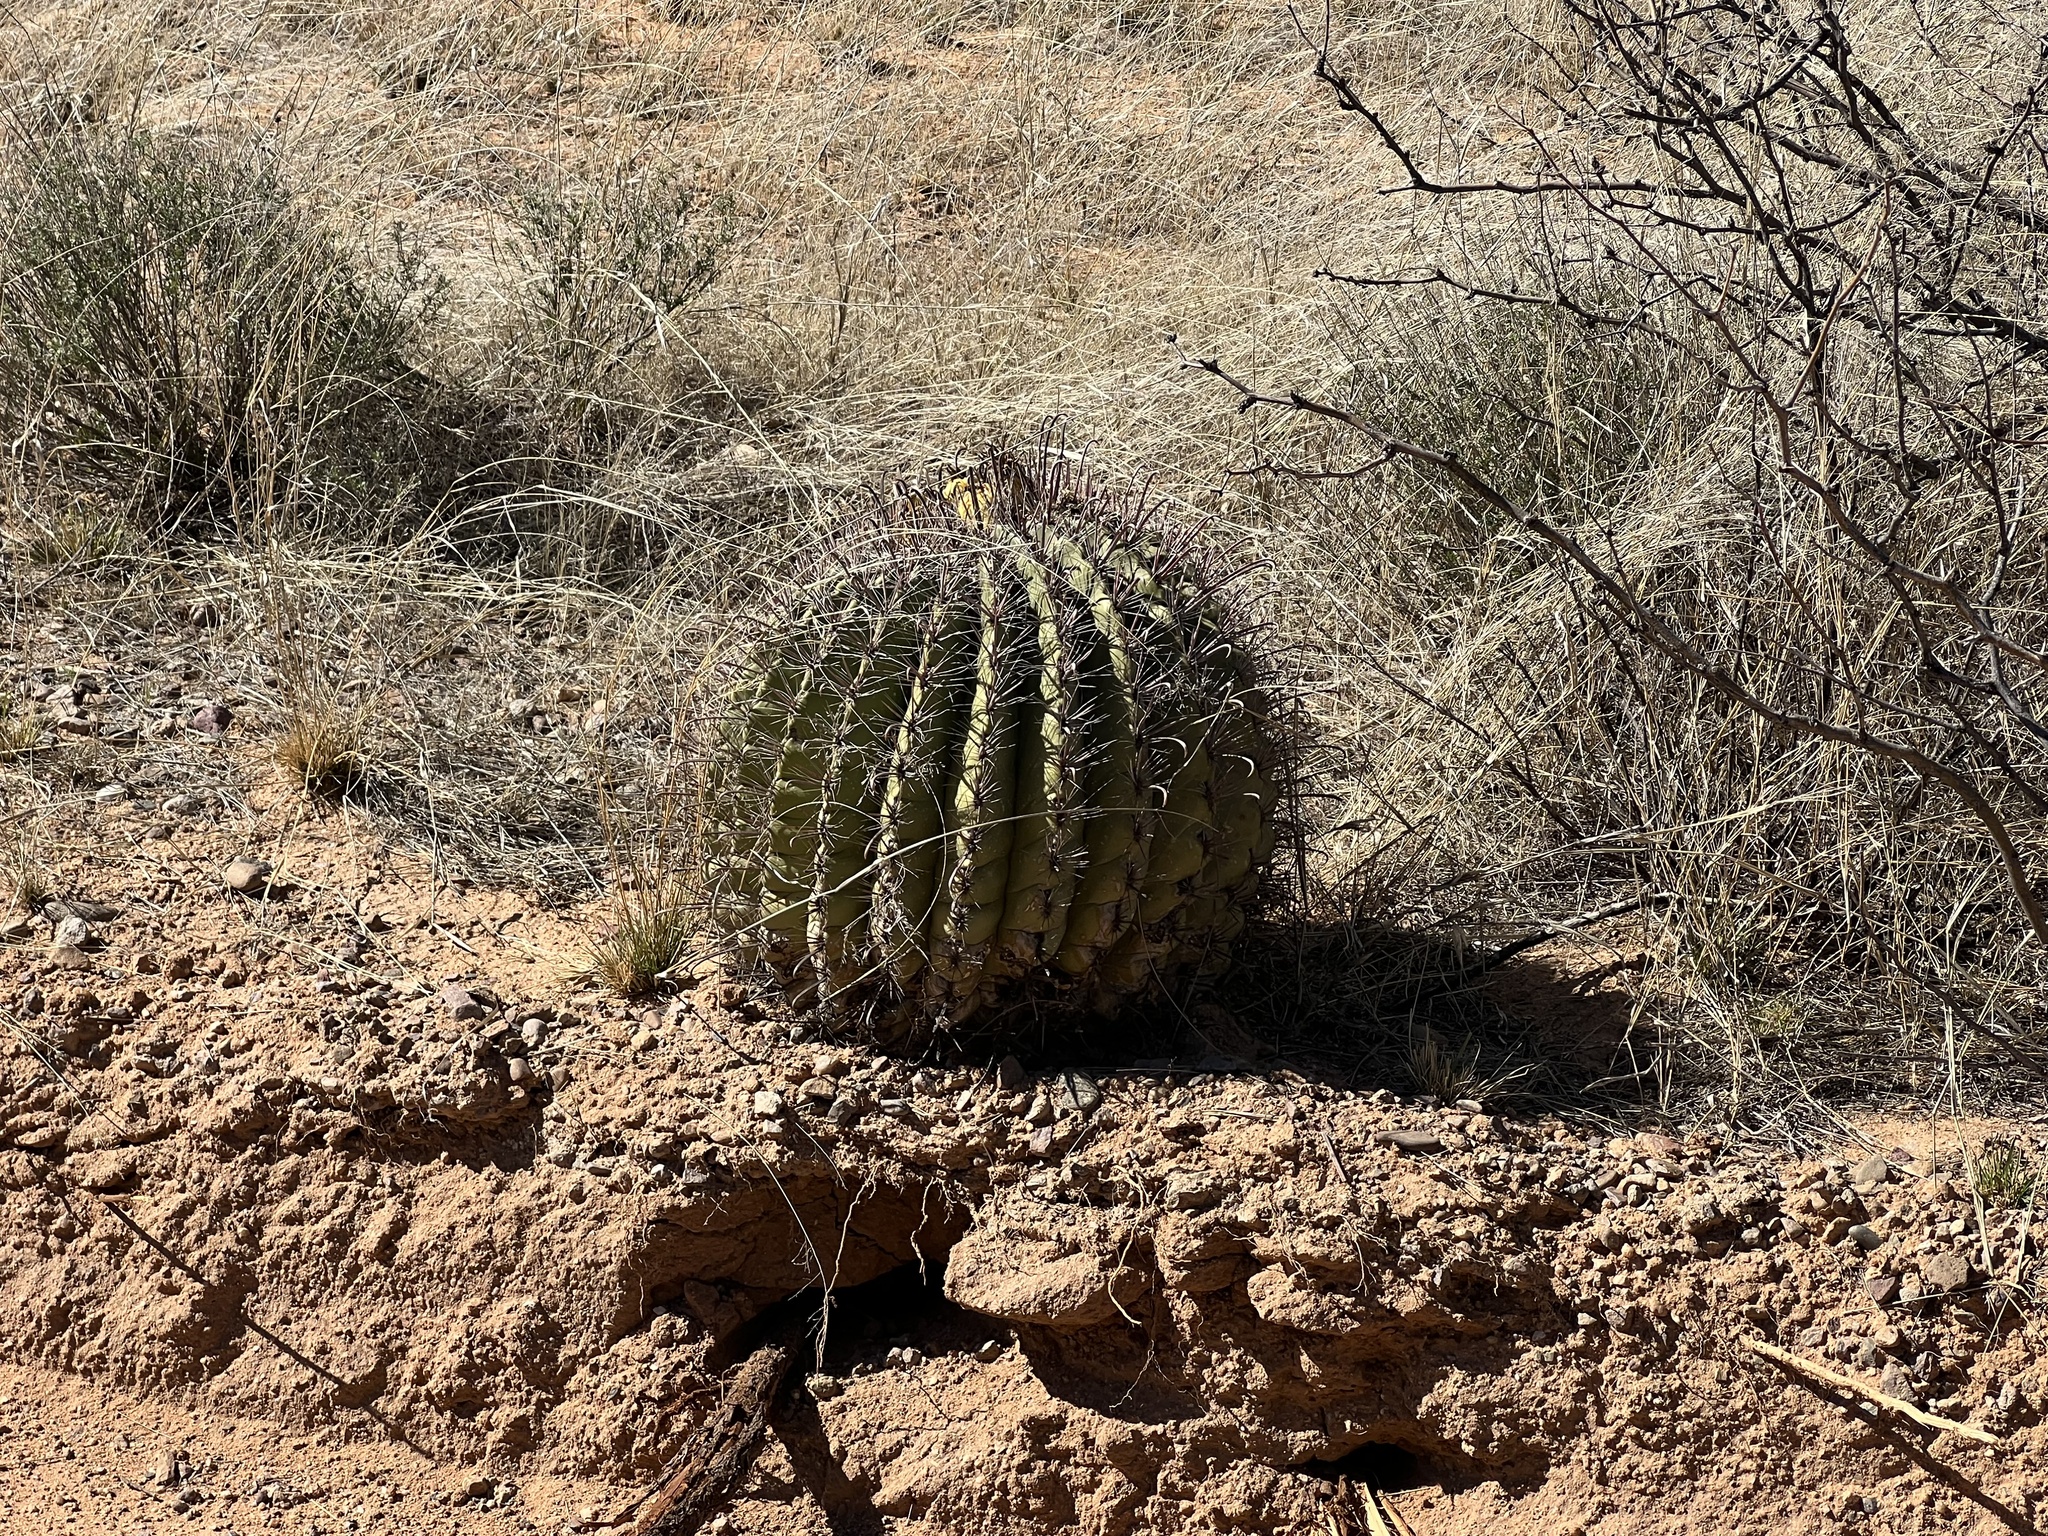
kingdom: Plantae
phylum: Tracheophyta
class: Magnoliopsida
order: Caryophyllales
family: Cactaceae
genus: Ferocactus
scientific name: Ferocactus wislizeni
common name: Candy barrel cactus
